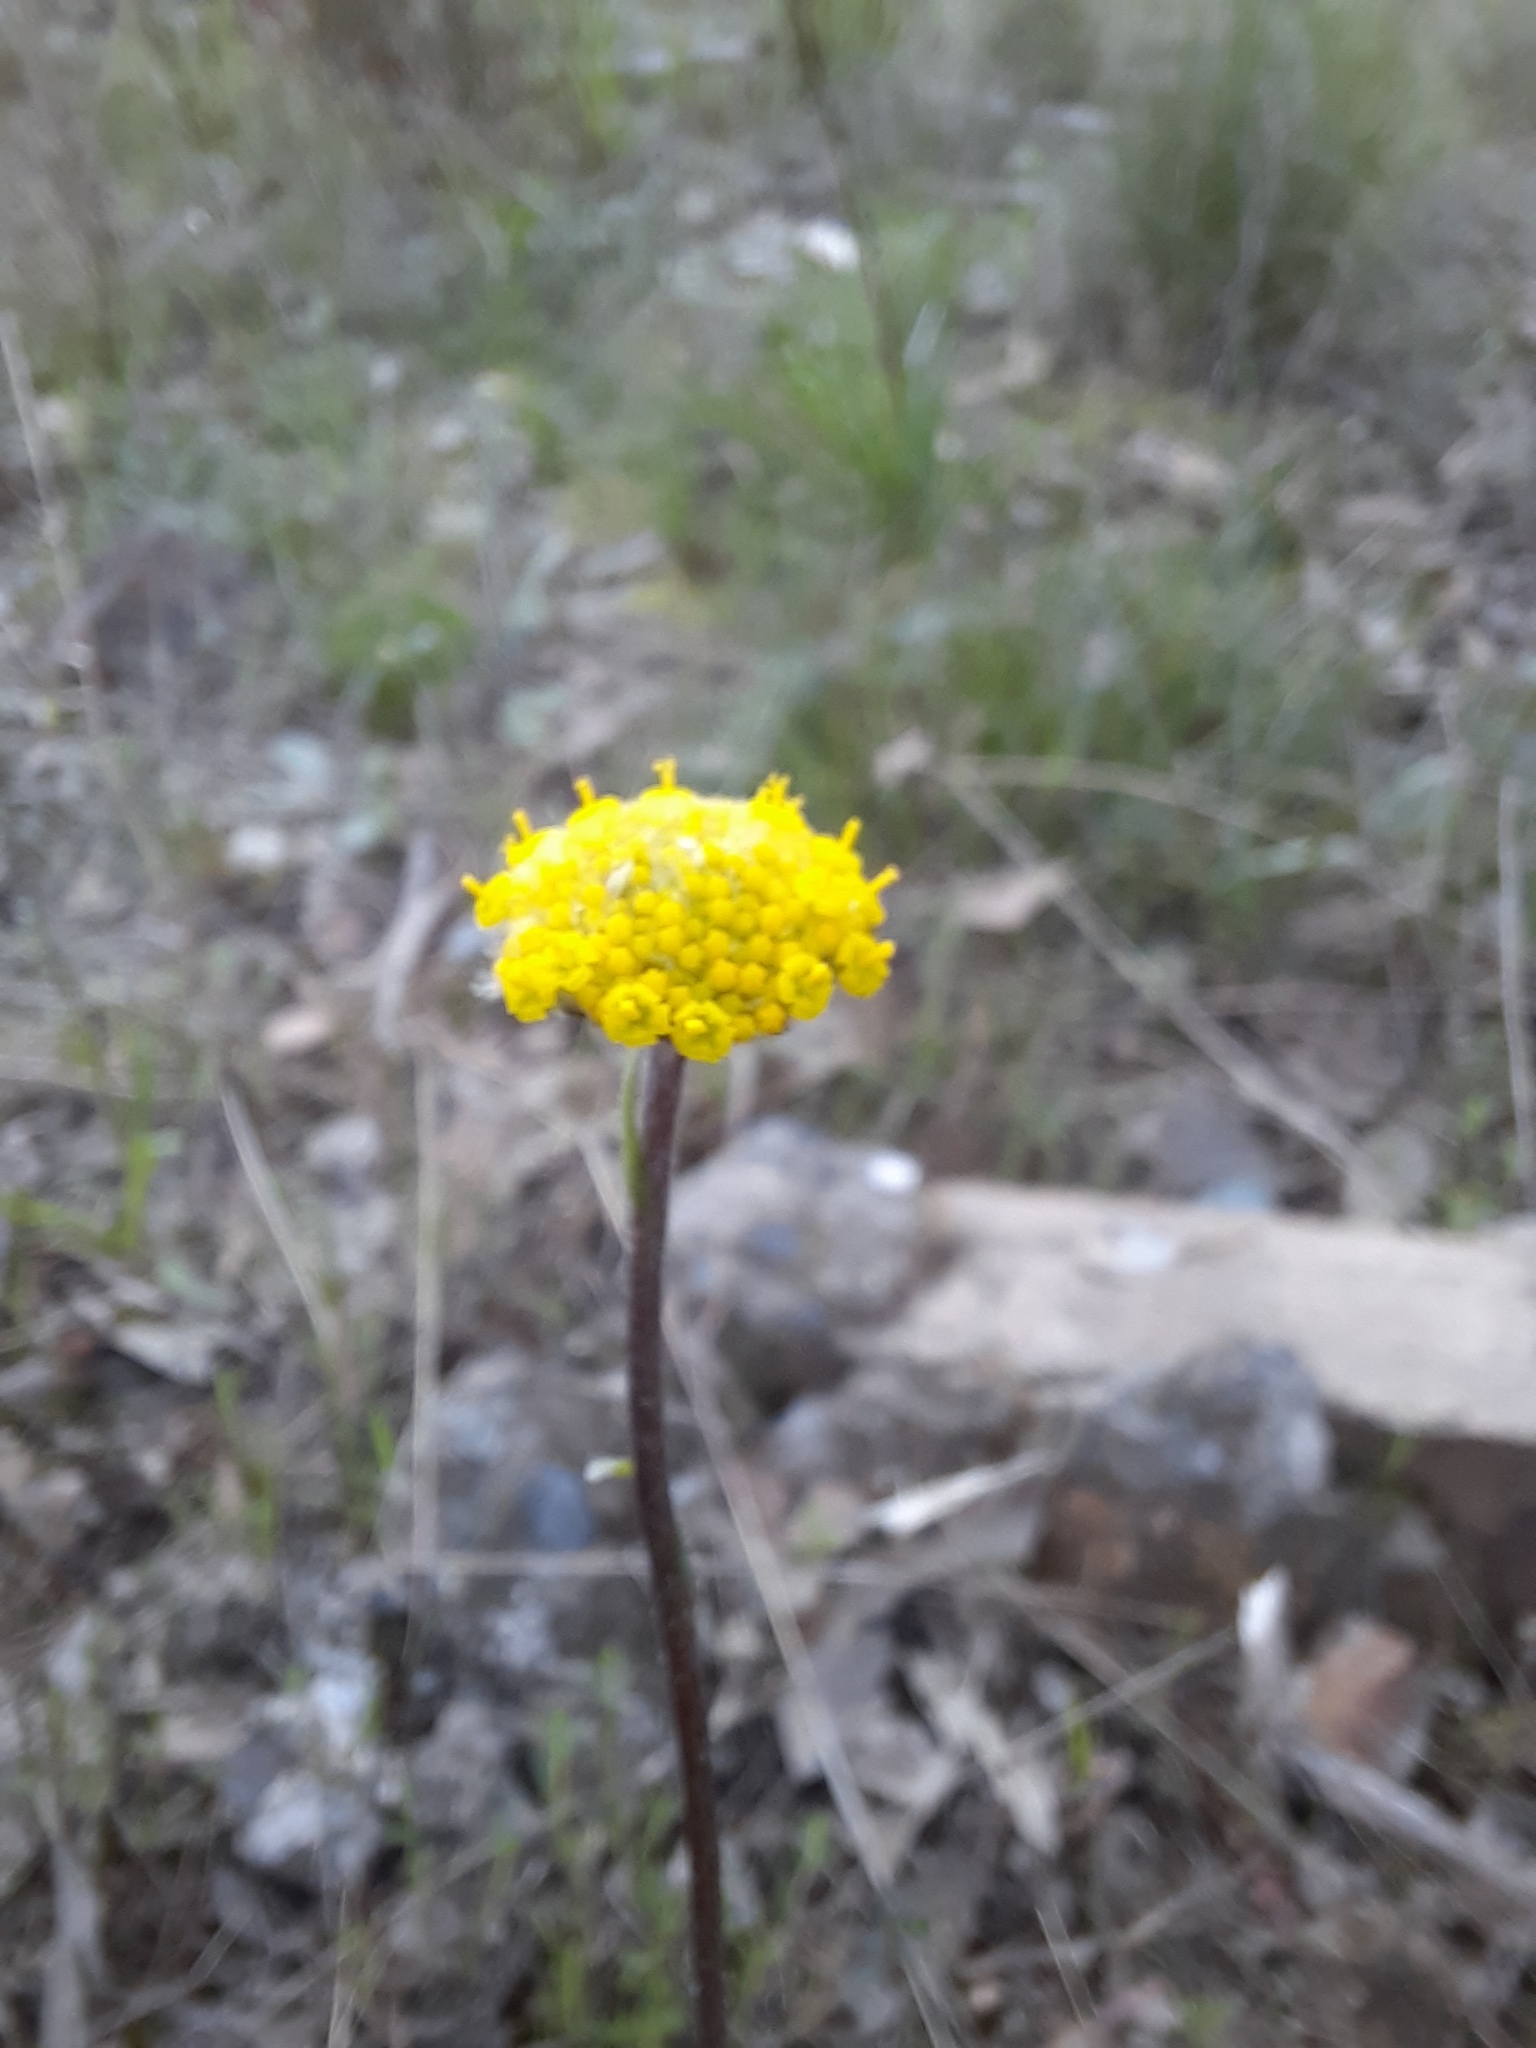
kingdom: Plantae
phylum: Tracheophyta
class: Magnoliopsida
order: Asterales
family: Asteraceae
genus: Craspedia
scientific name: Craspedia variabilis
